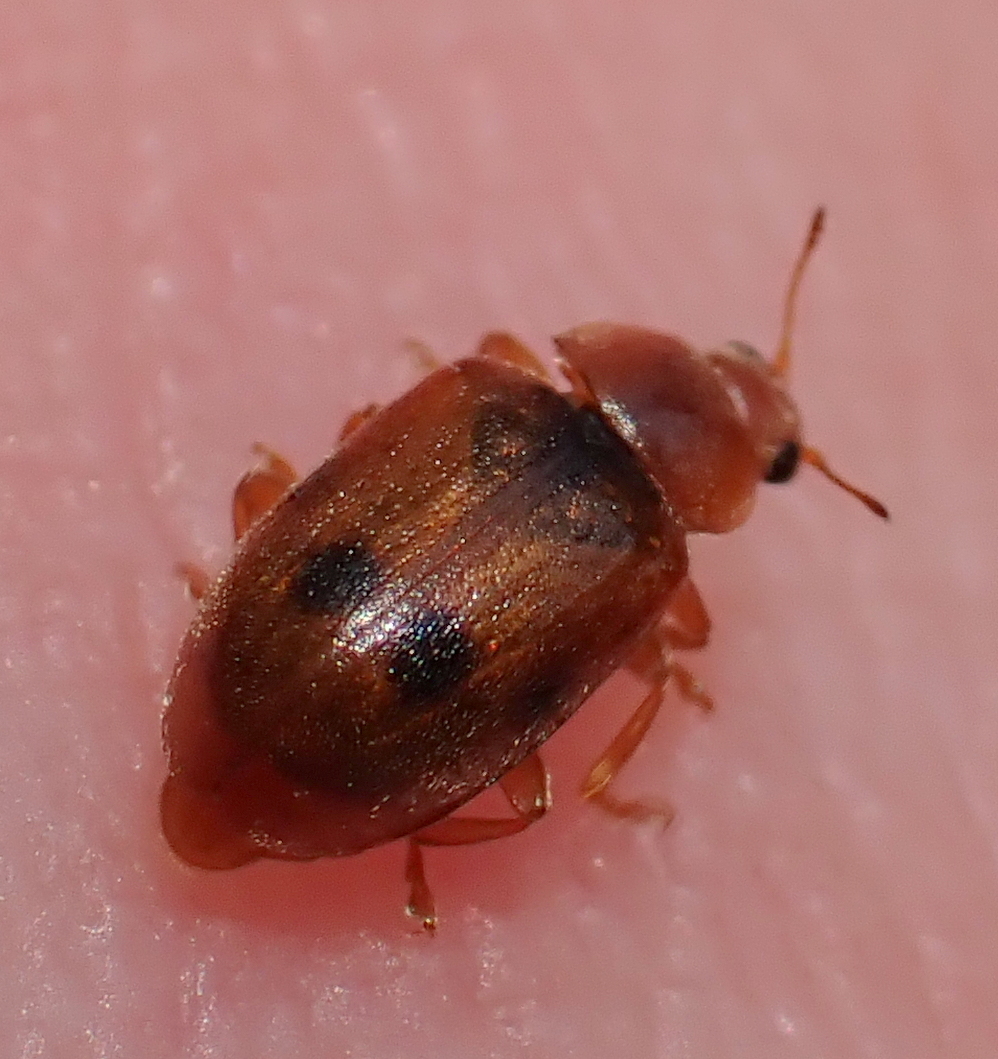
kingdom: Animalia
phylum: Arthropoda
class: Insecta
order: Coleoptera
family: Coccinellidae
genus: Coccidula
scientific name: Coccidula scutellata
